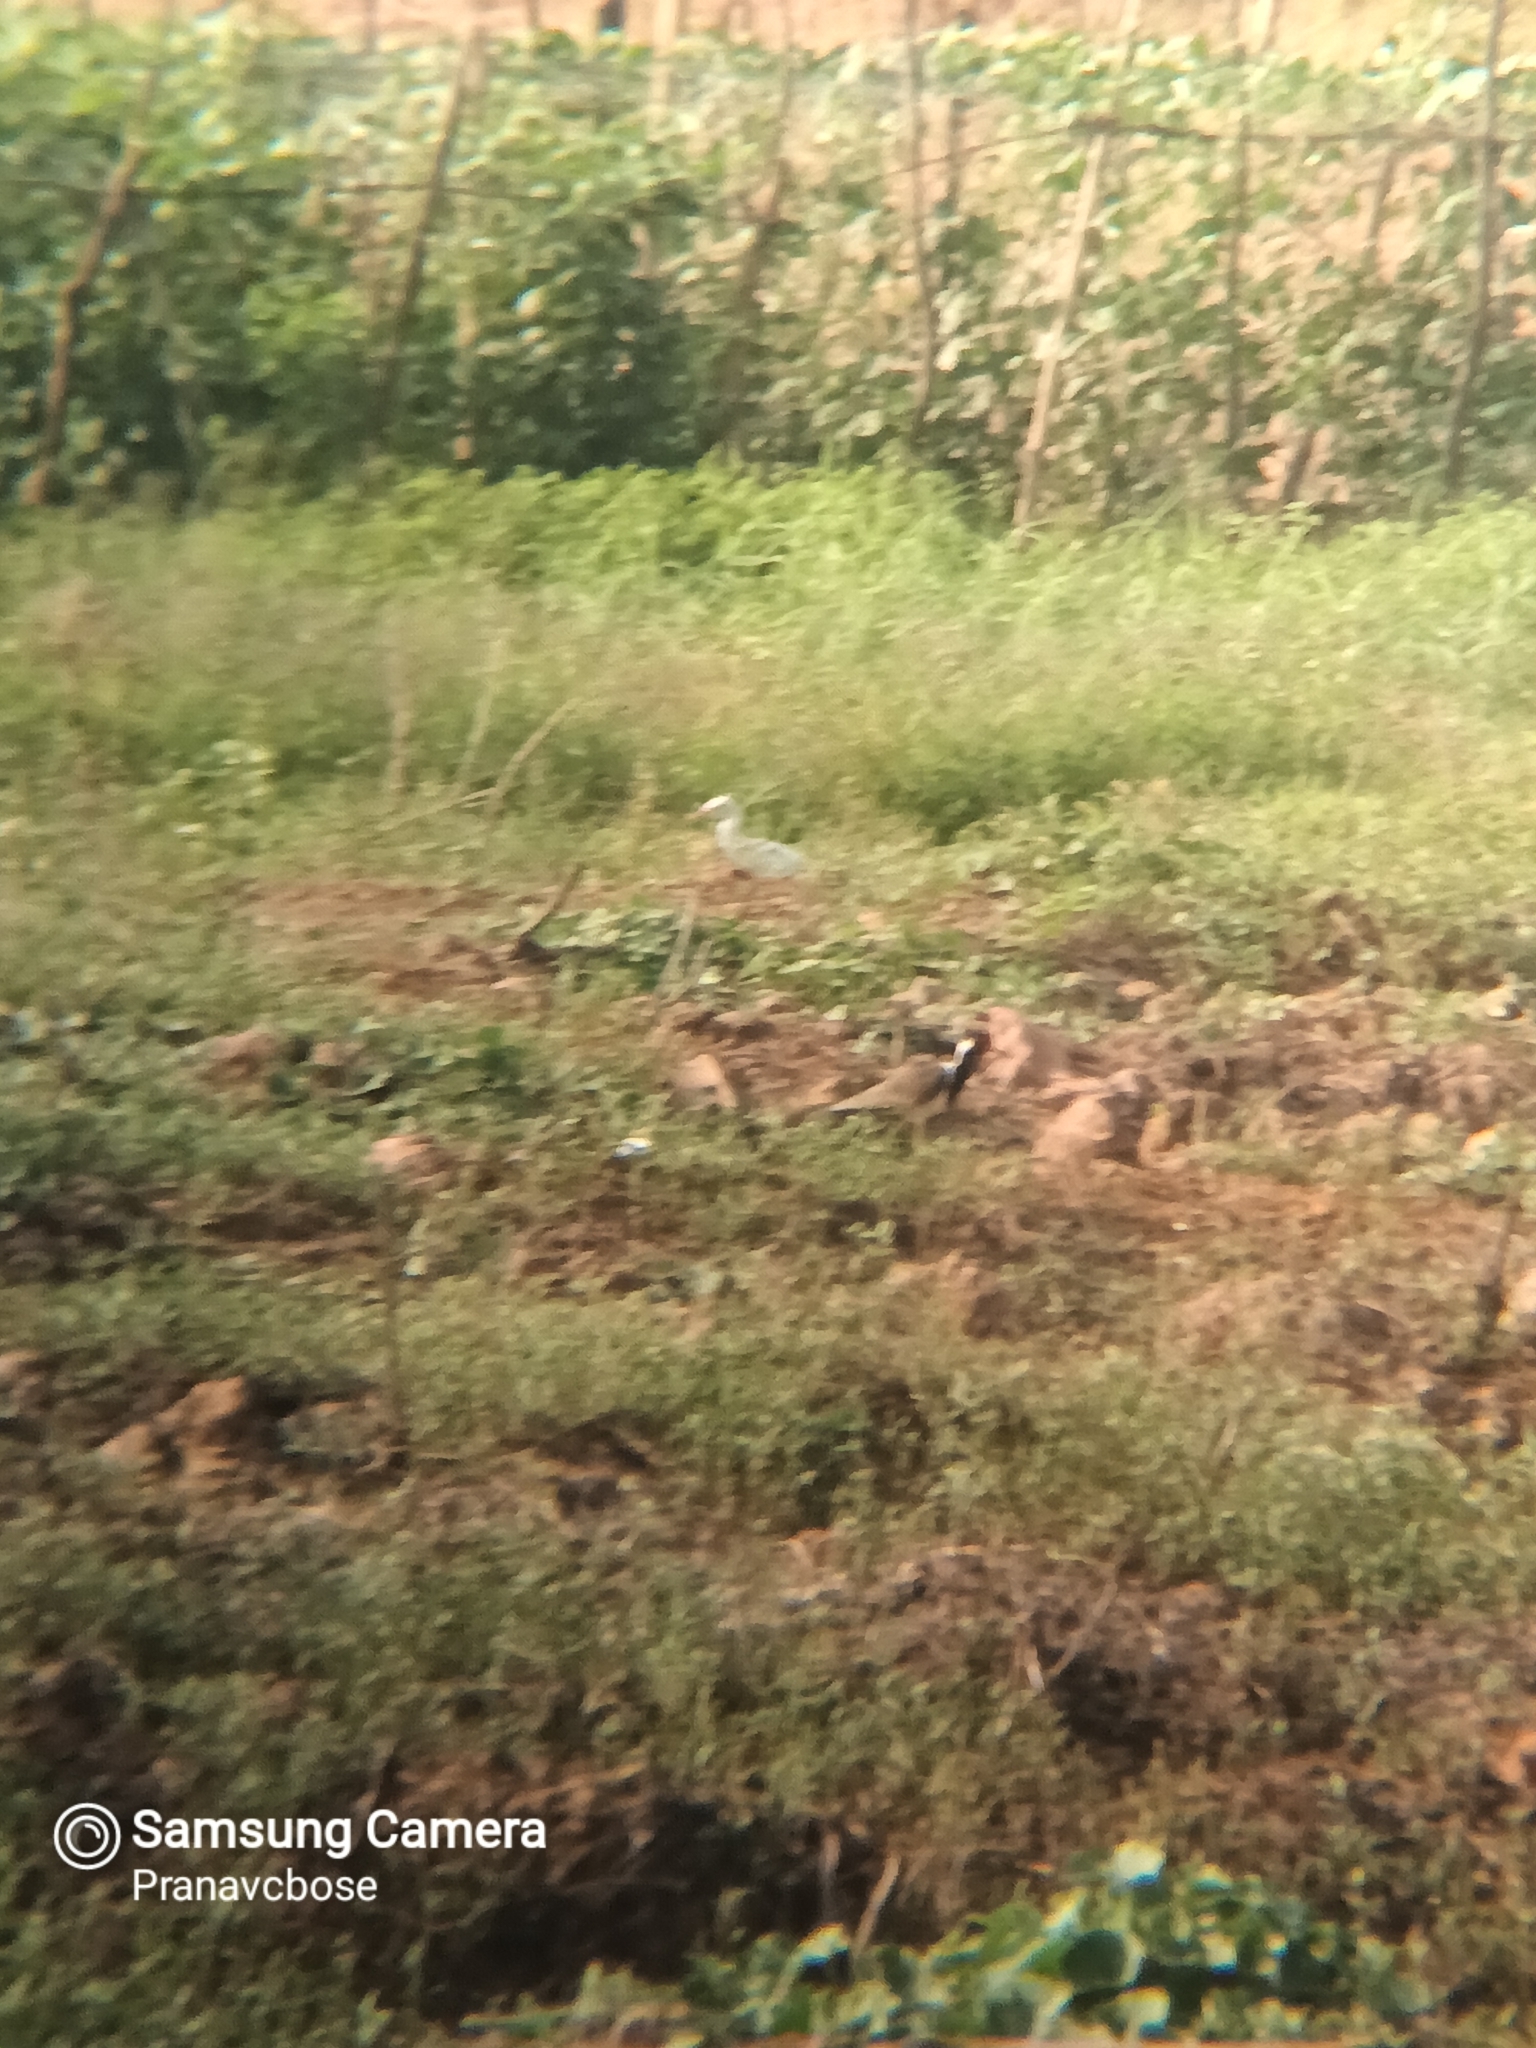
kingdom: Animalia
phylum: Chordata
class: Aves
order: Charadriiformes
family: Charadriidae
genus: Vanellus
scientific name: Vanellus indicus
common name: Red-wattled lapwing
